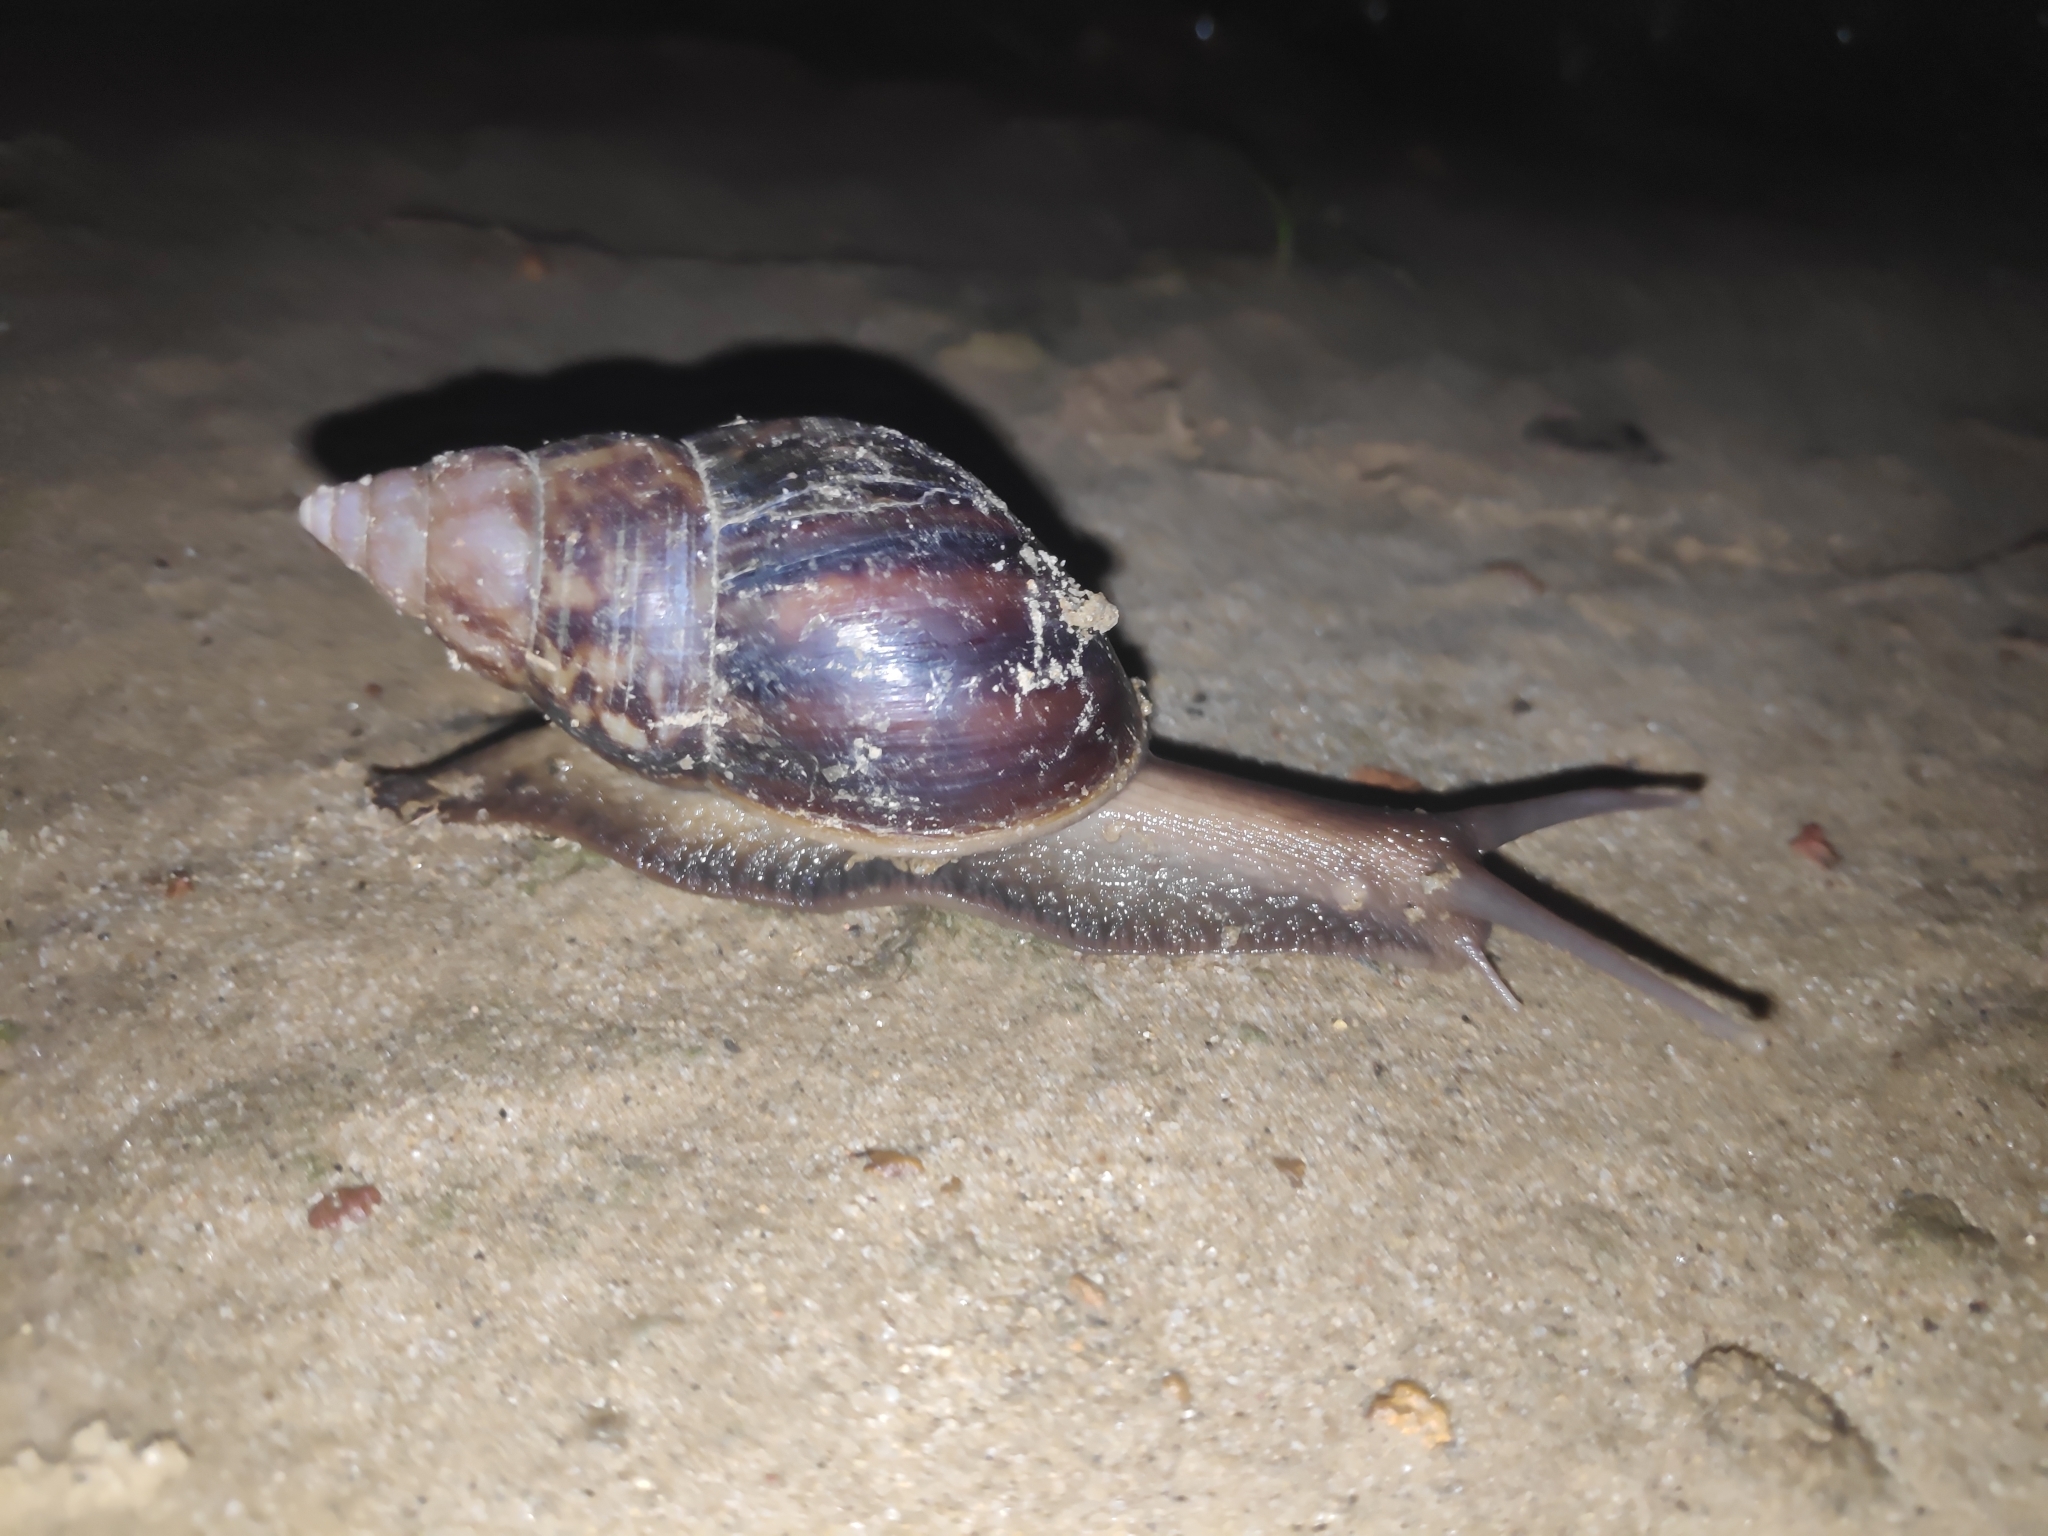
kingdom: Animalia
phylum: Mollusca
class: Gastropoda
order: Stylommatophora
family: Achatinidae
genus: Lissachatina
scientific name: Lissachatina fulica
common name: Giant african snail
